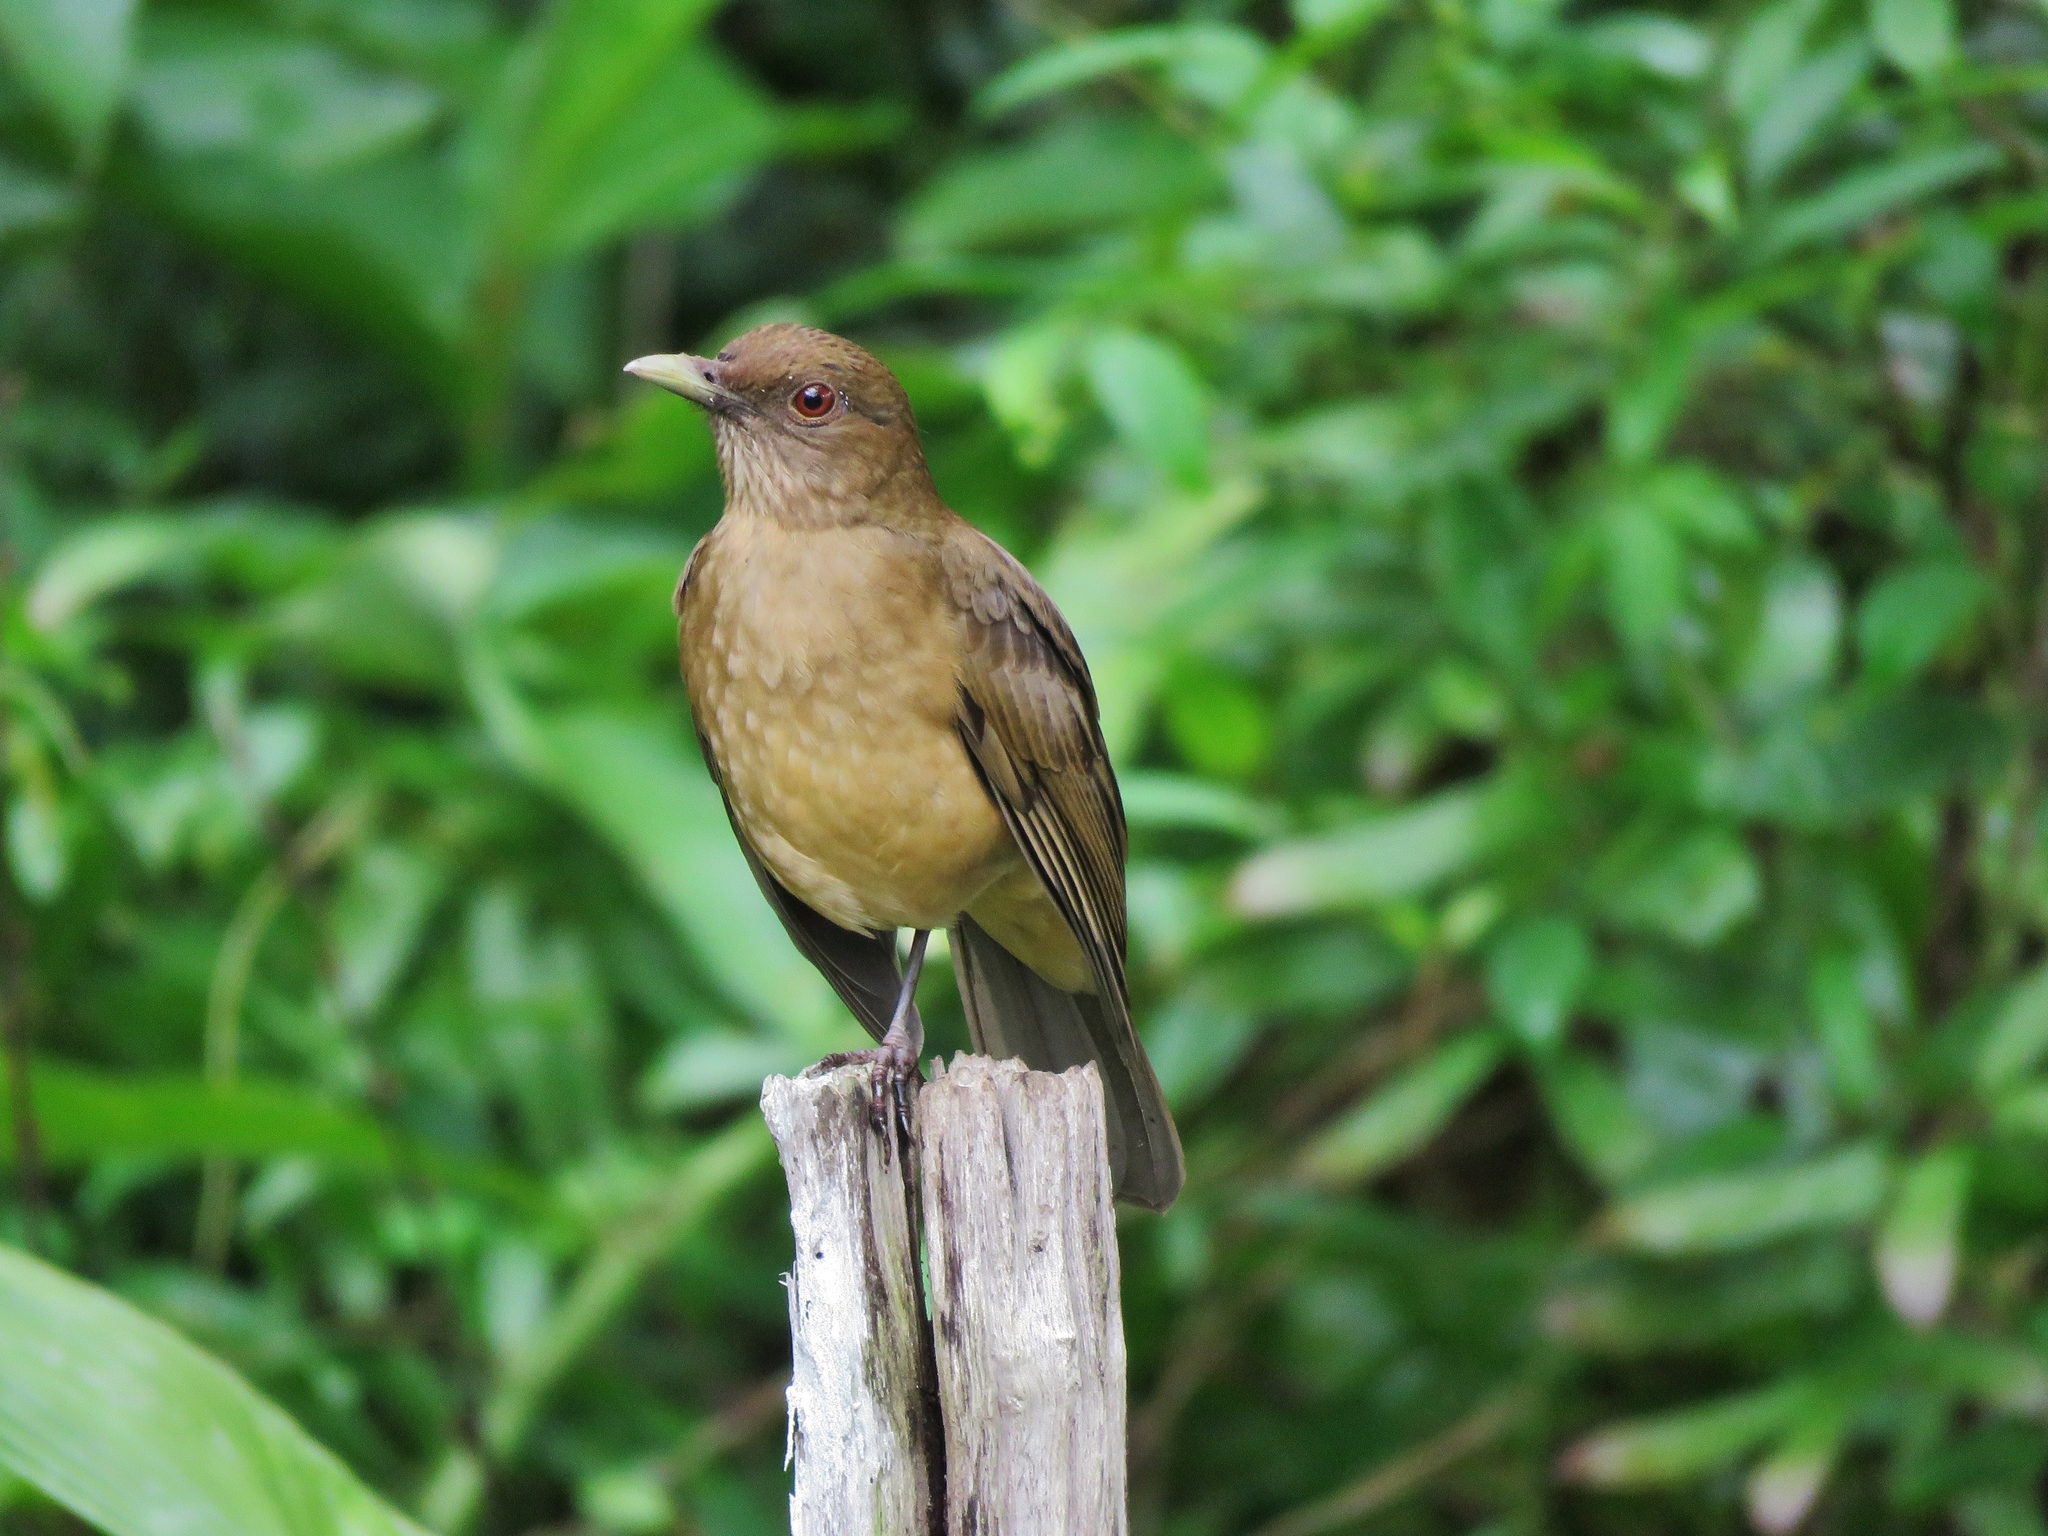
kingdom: Animalia
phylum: Chordata
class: Aves
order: Passeriformes
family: Turdidae
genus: Turdus
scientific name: Turdus grayi
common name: Clay-colored thrush
